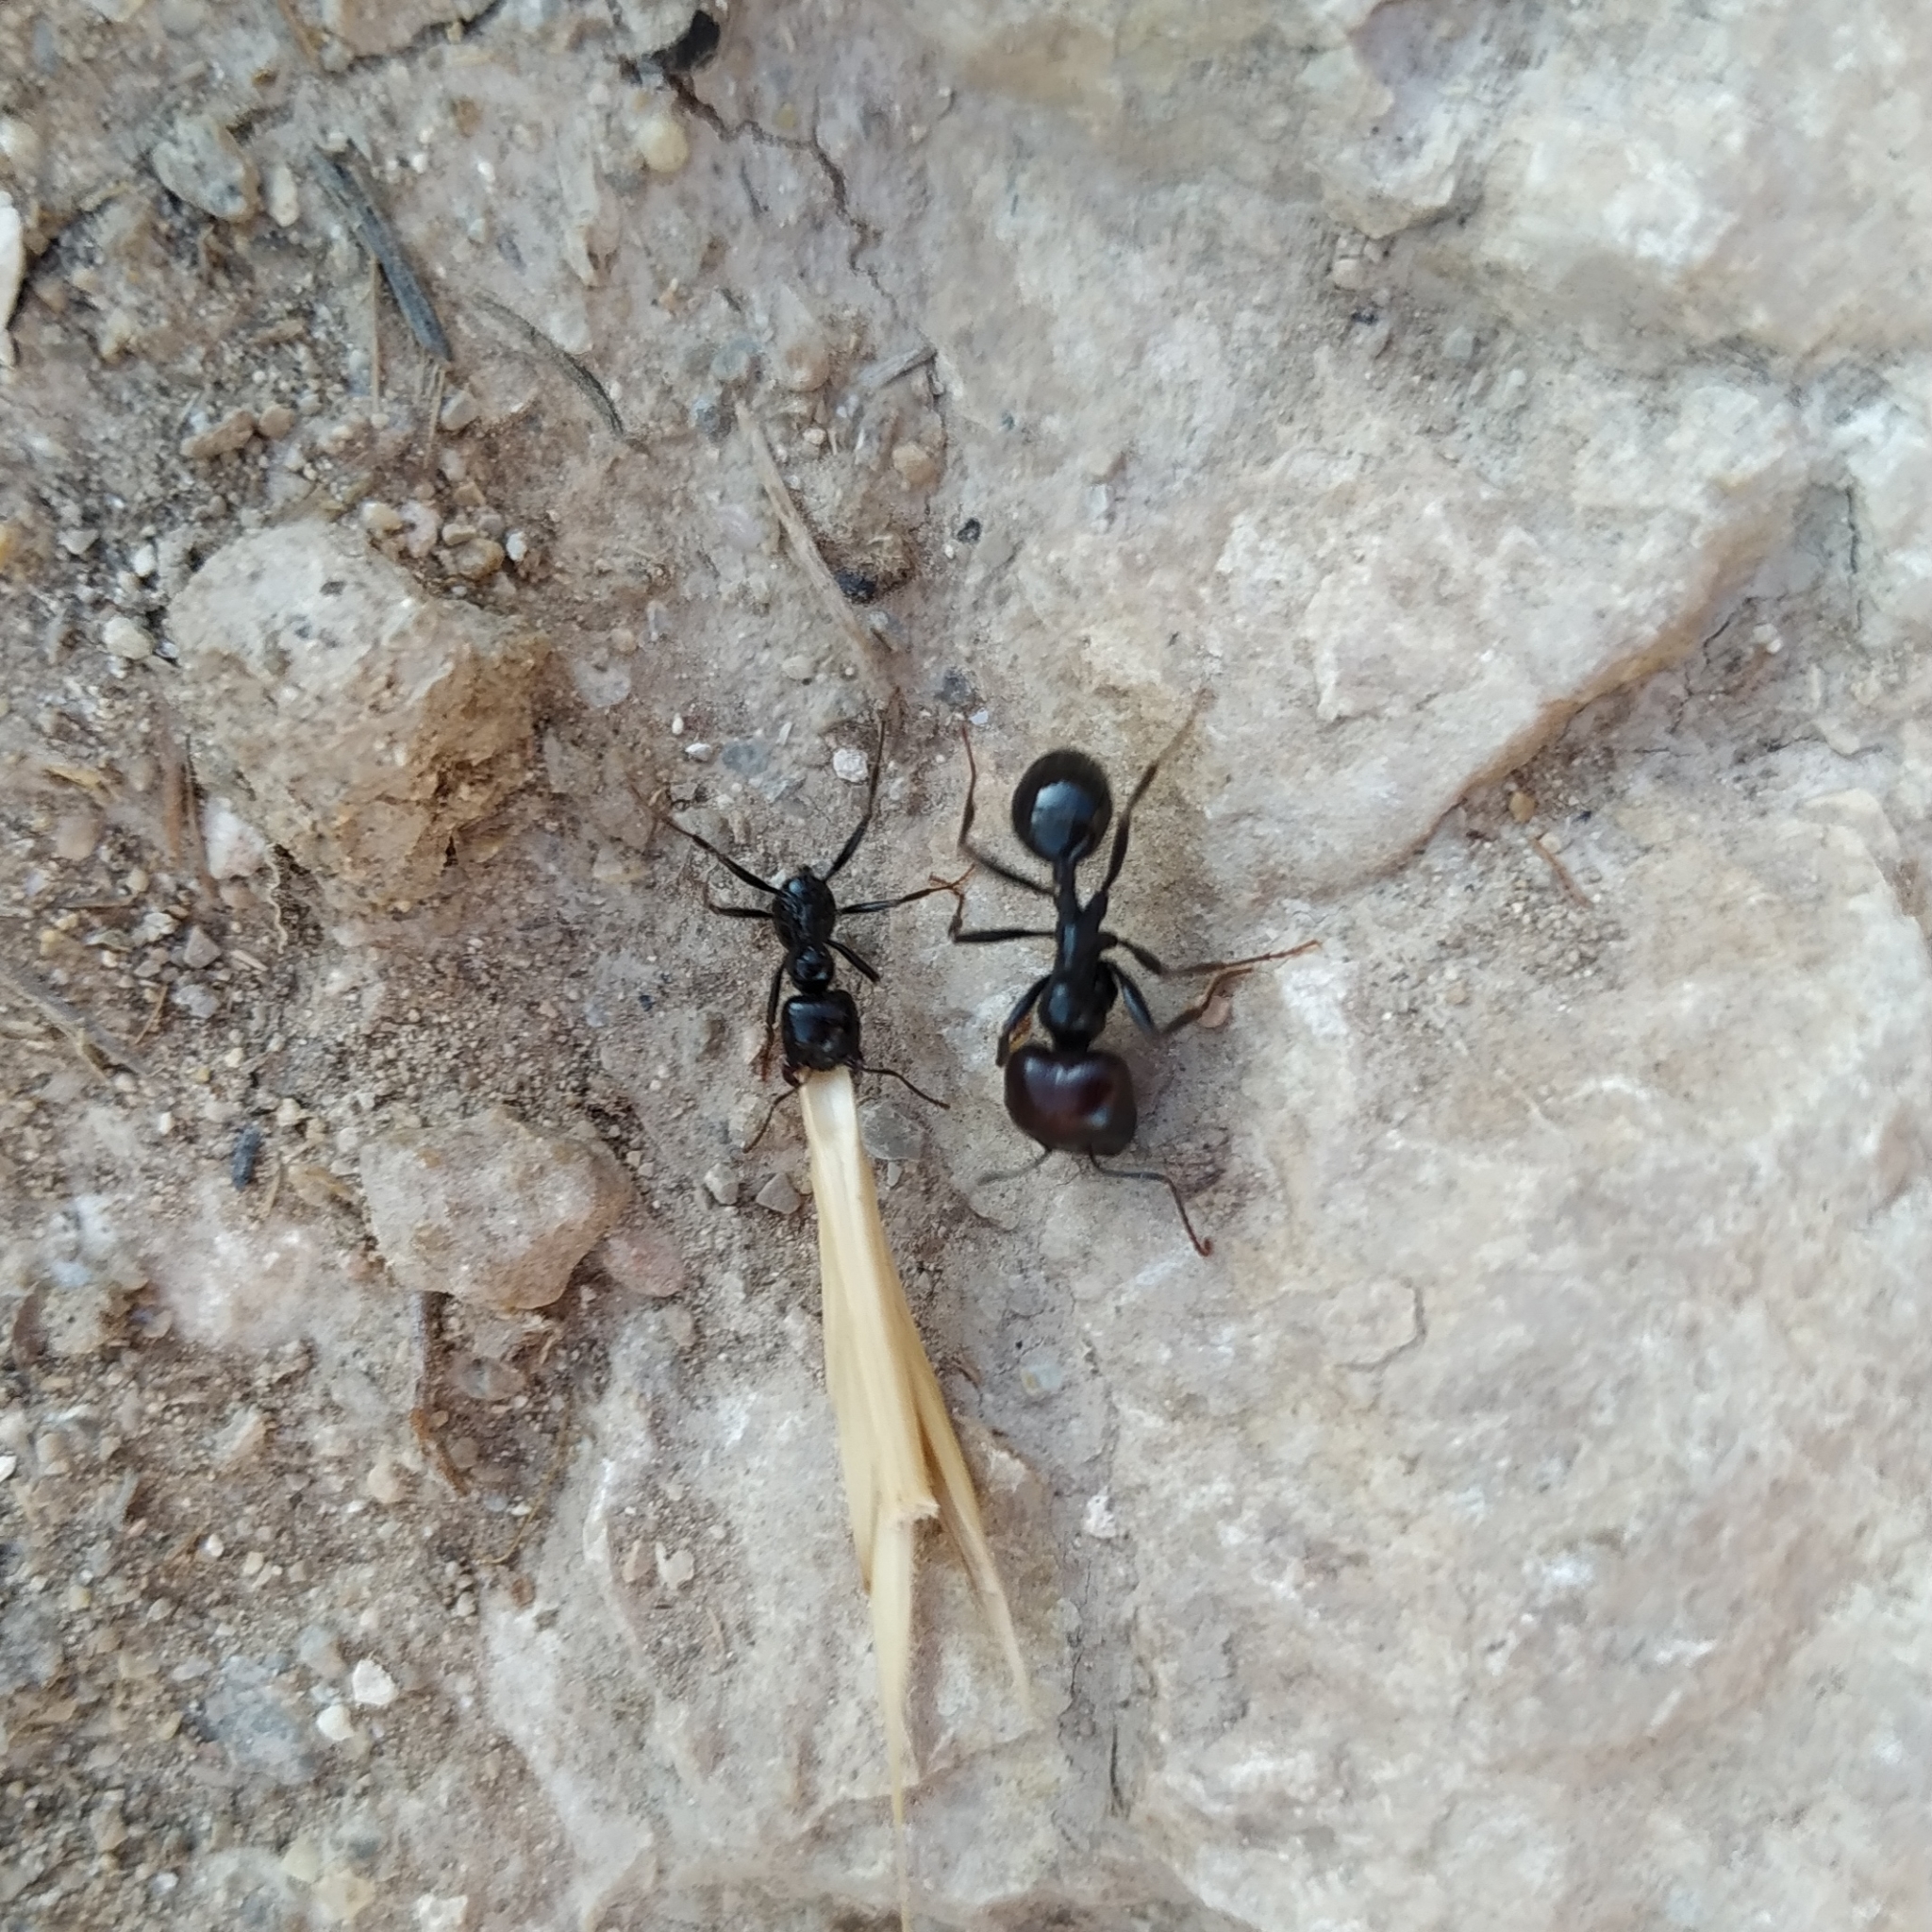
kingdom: Animalia
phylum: Arthropoda
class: Insecta
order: Hymenoptera
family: Formicidae
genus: Messor
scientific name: Messor barbarus
